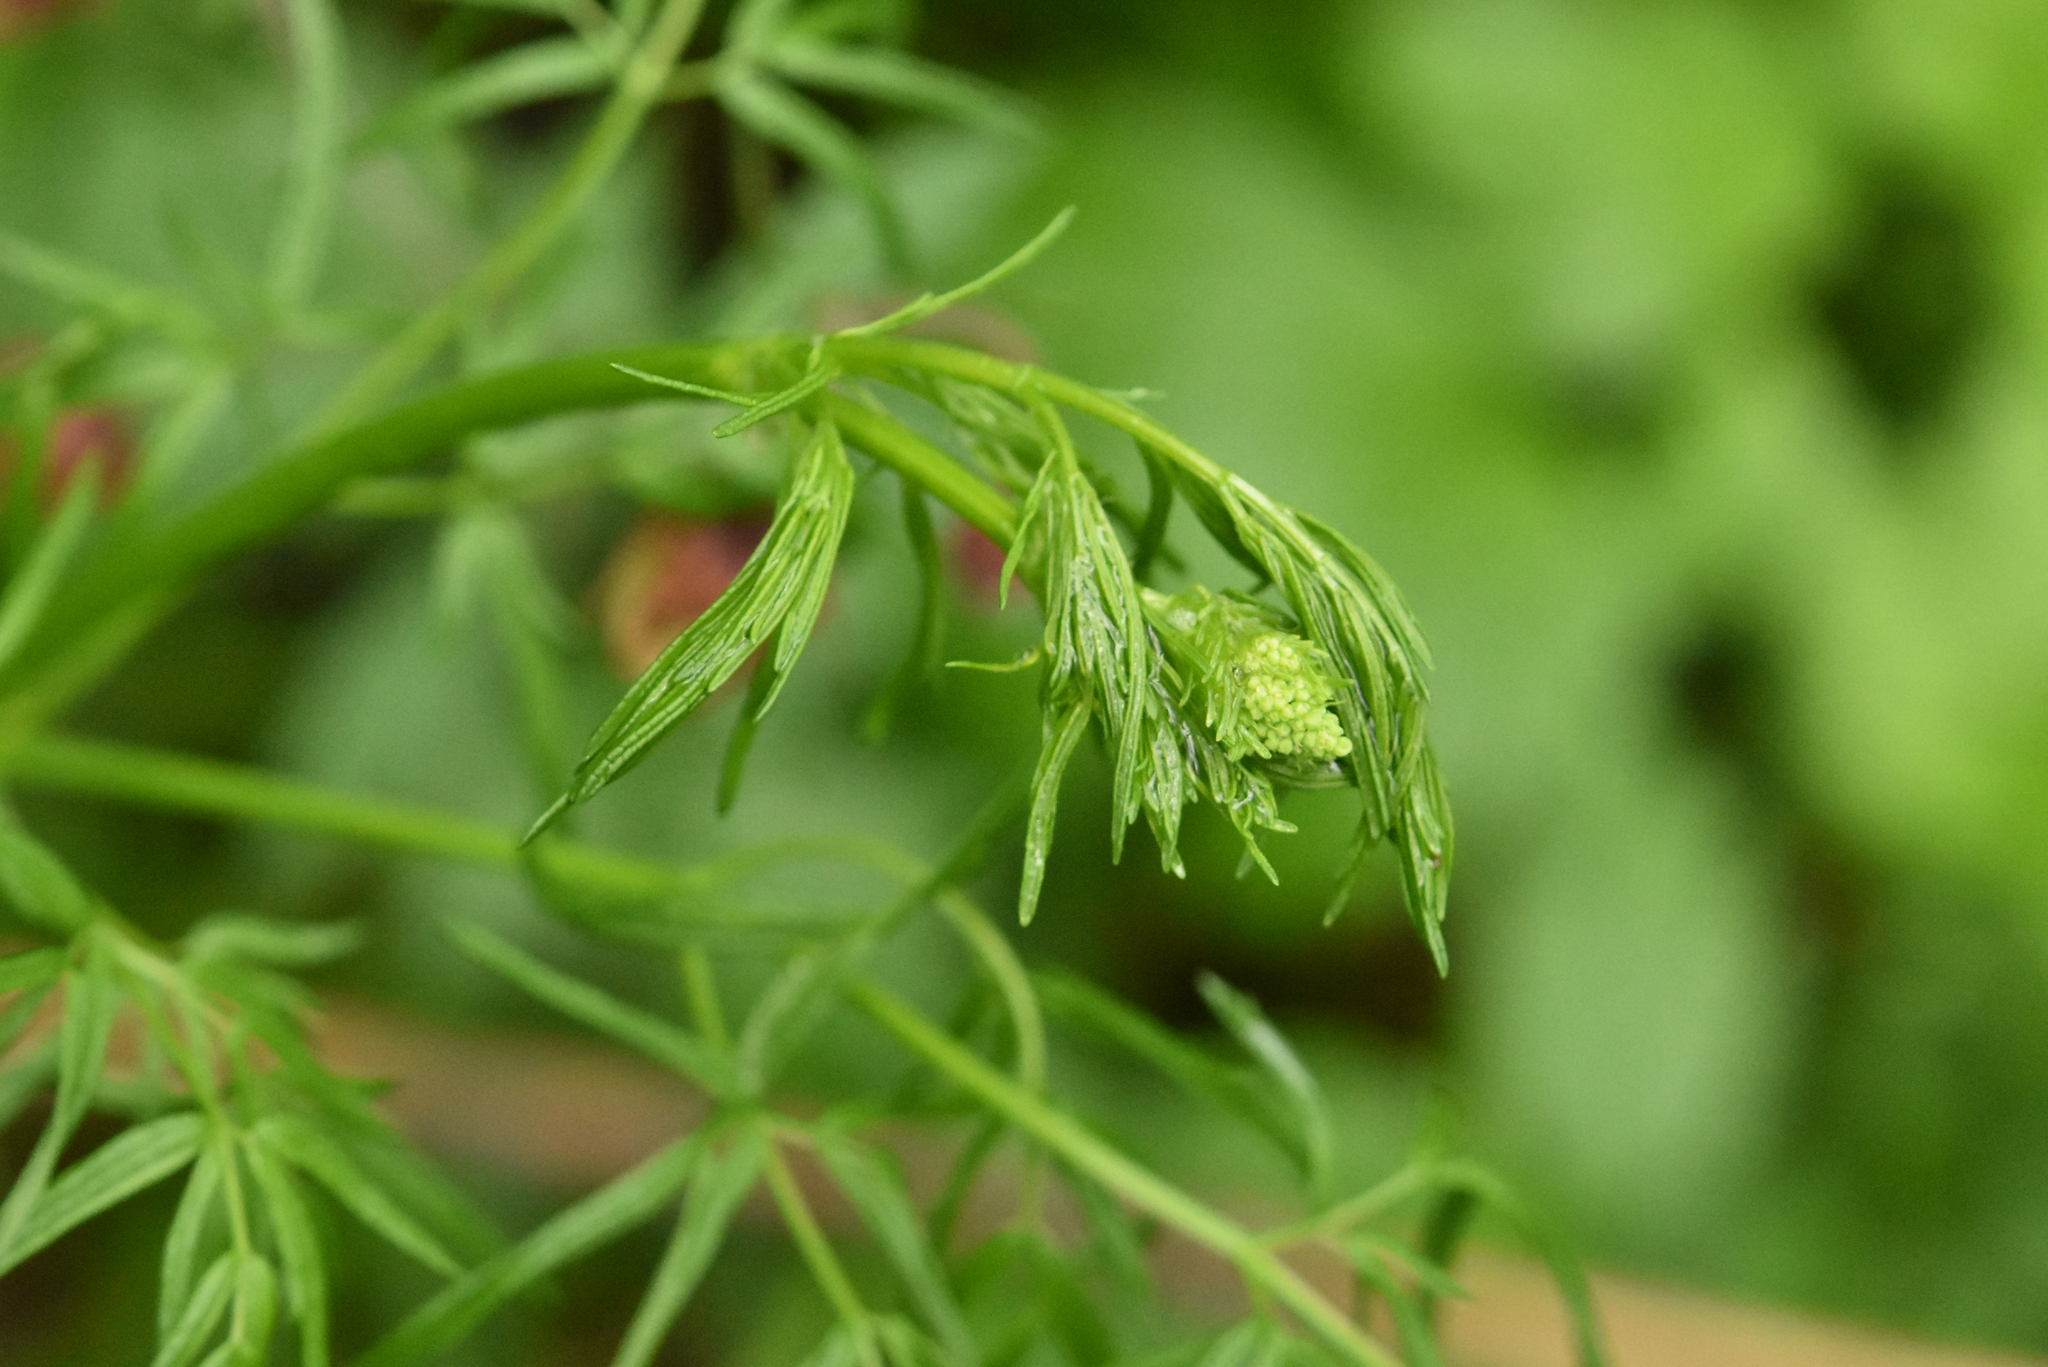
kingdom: Plantae
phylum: Tracheophyta
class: Magnoliopsida
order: Ranunculales
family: Ranunculaceae
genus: Thalictrum
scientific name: Thalictrum lucidum
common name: Shining meadow-rue
